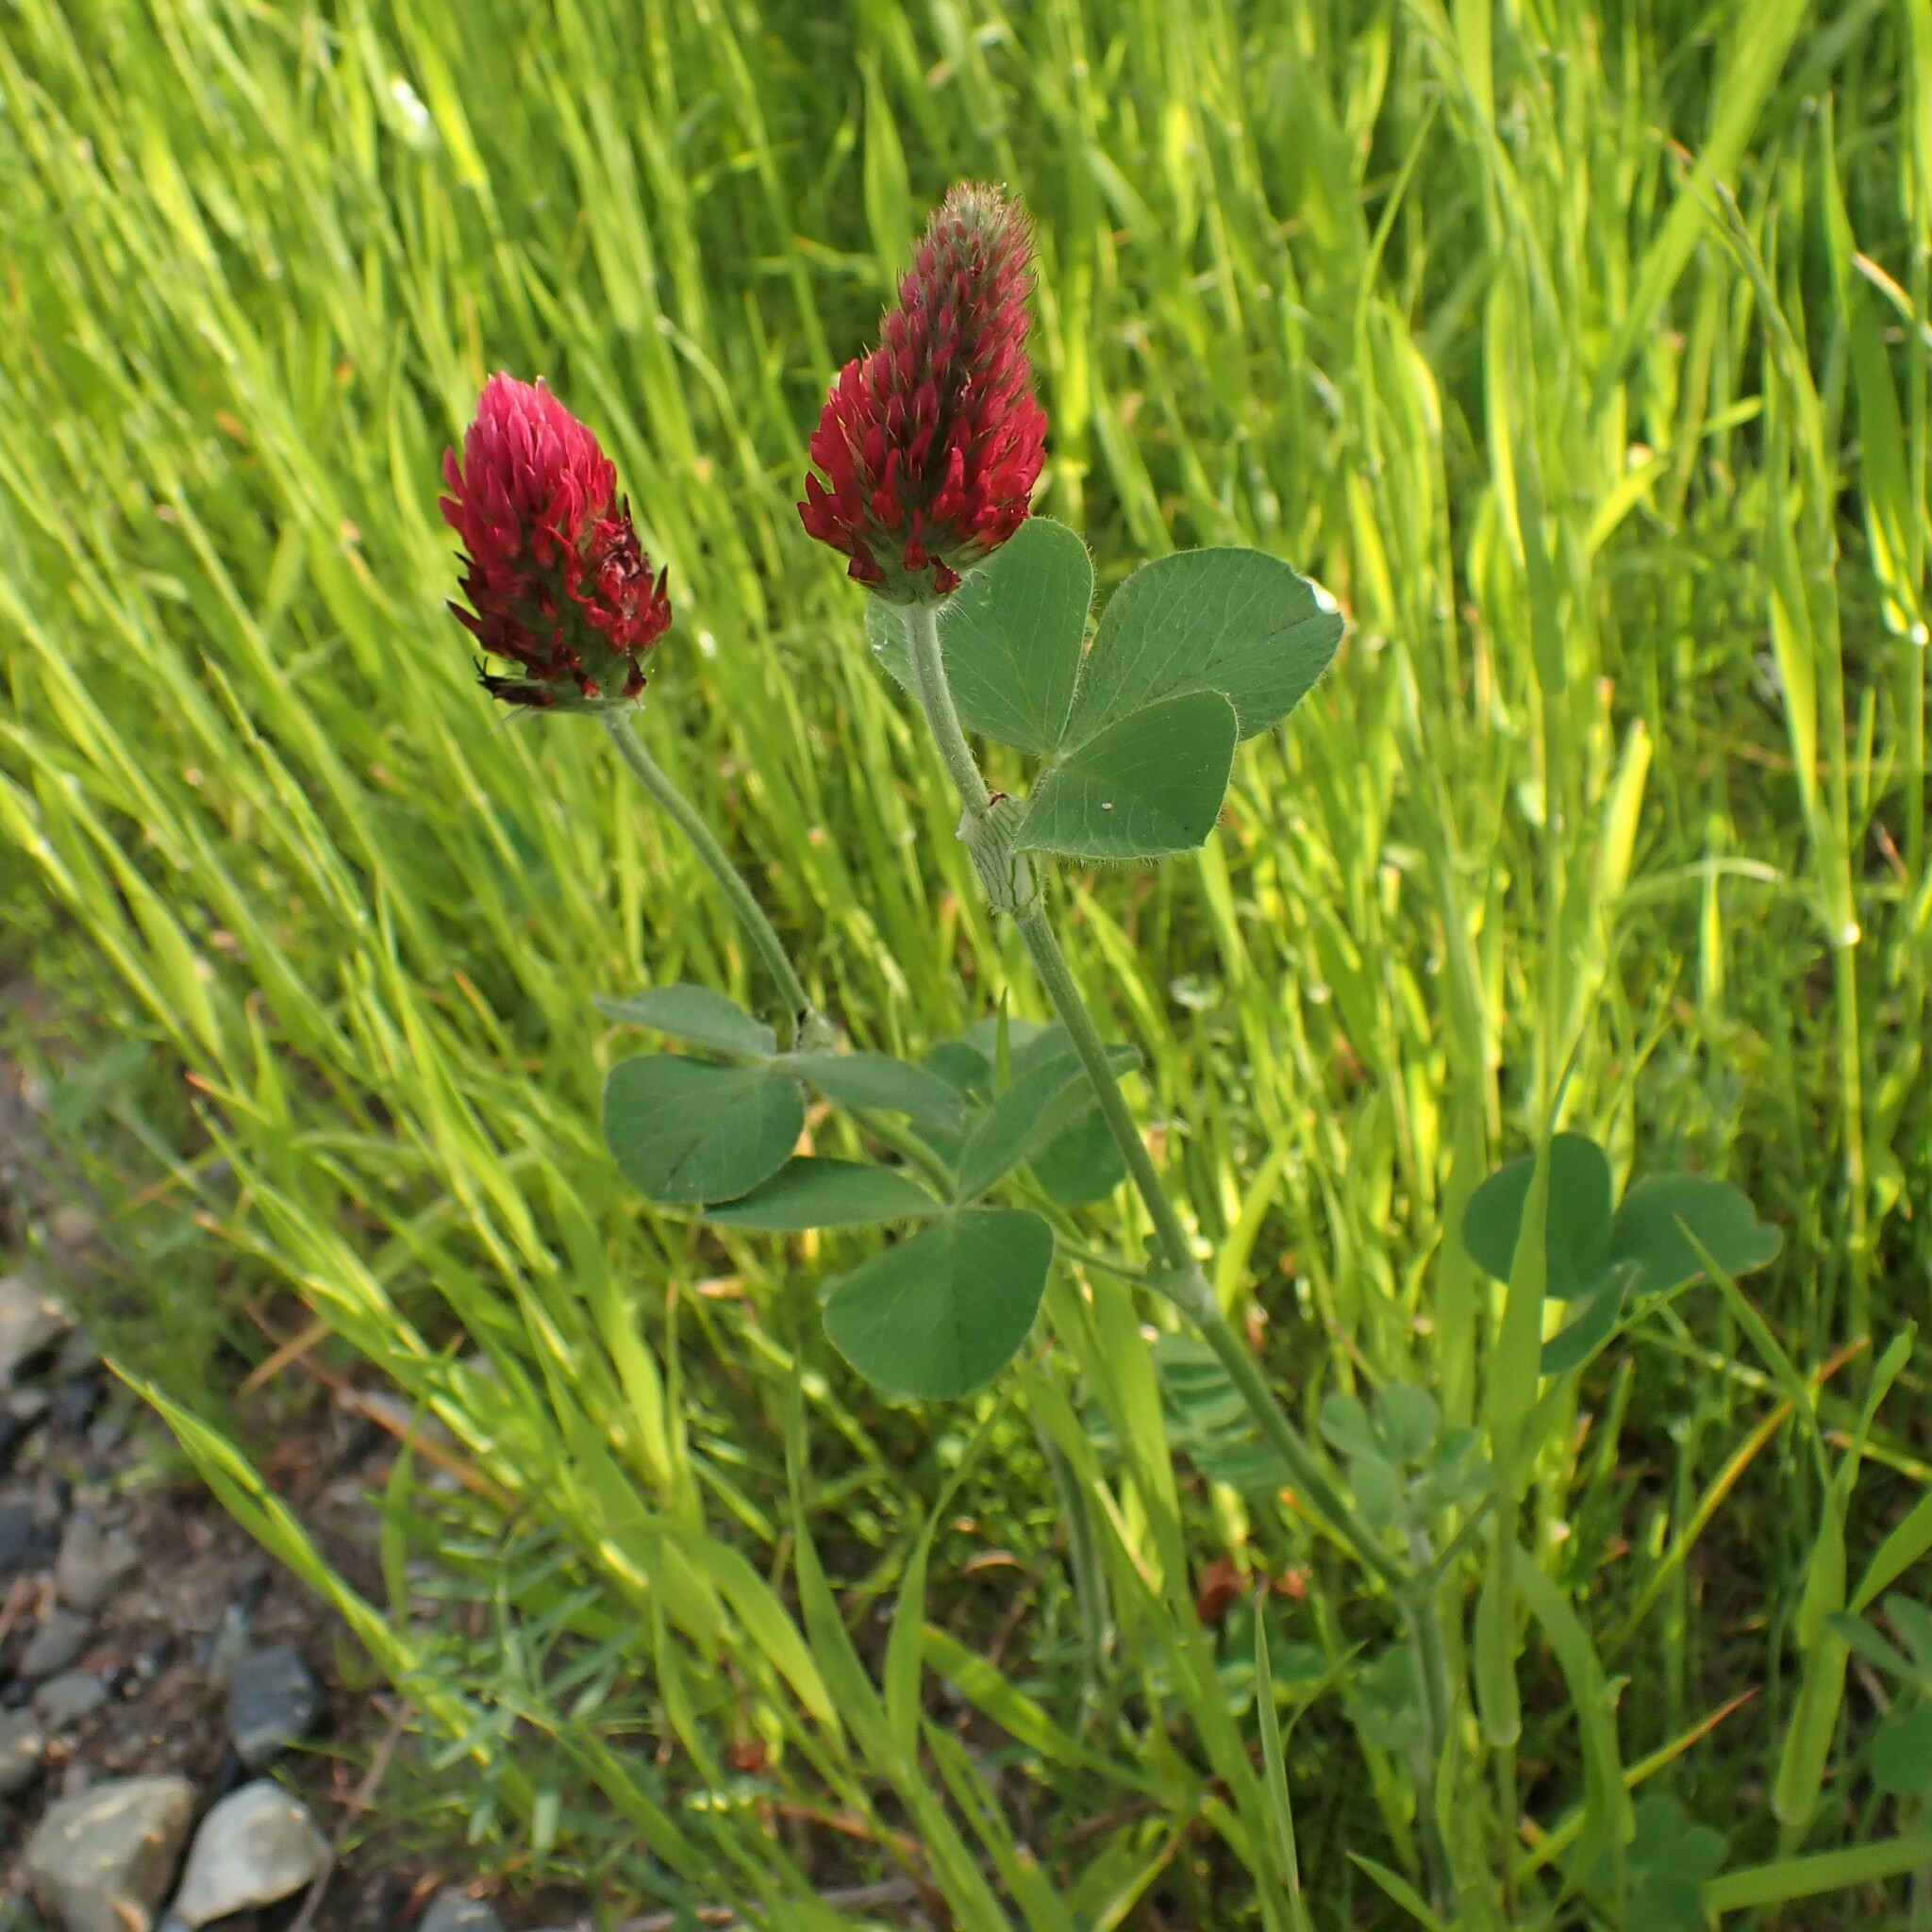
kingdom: Plantae
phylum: Tracheophyta
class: Magnoliopsida
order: Fabales
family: Fabaceae
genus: Trifolium
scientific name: Trifolium incarnatum
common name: Crimson clover
